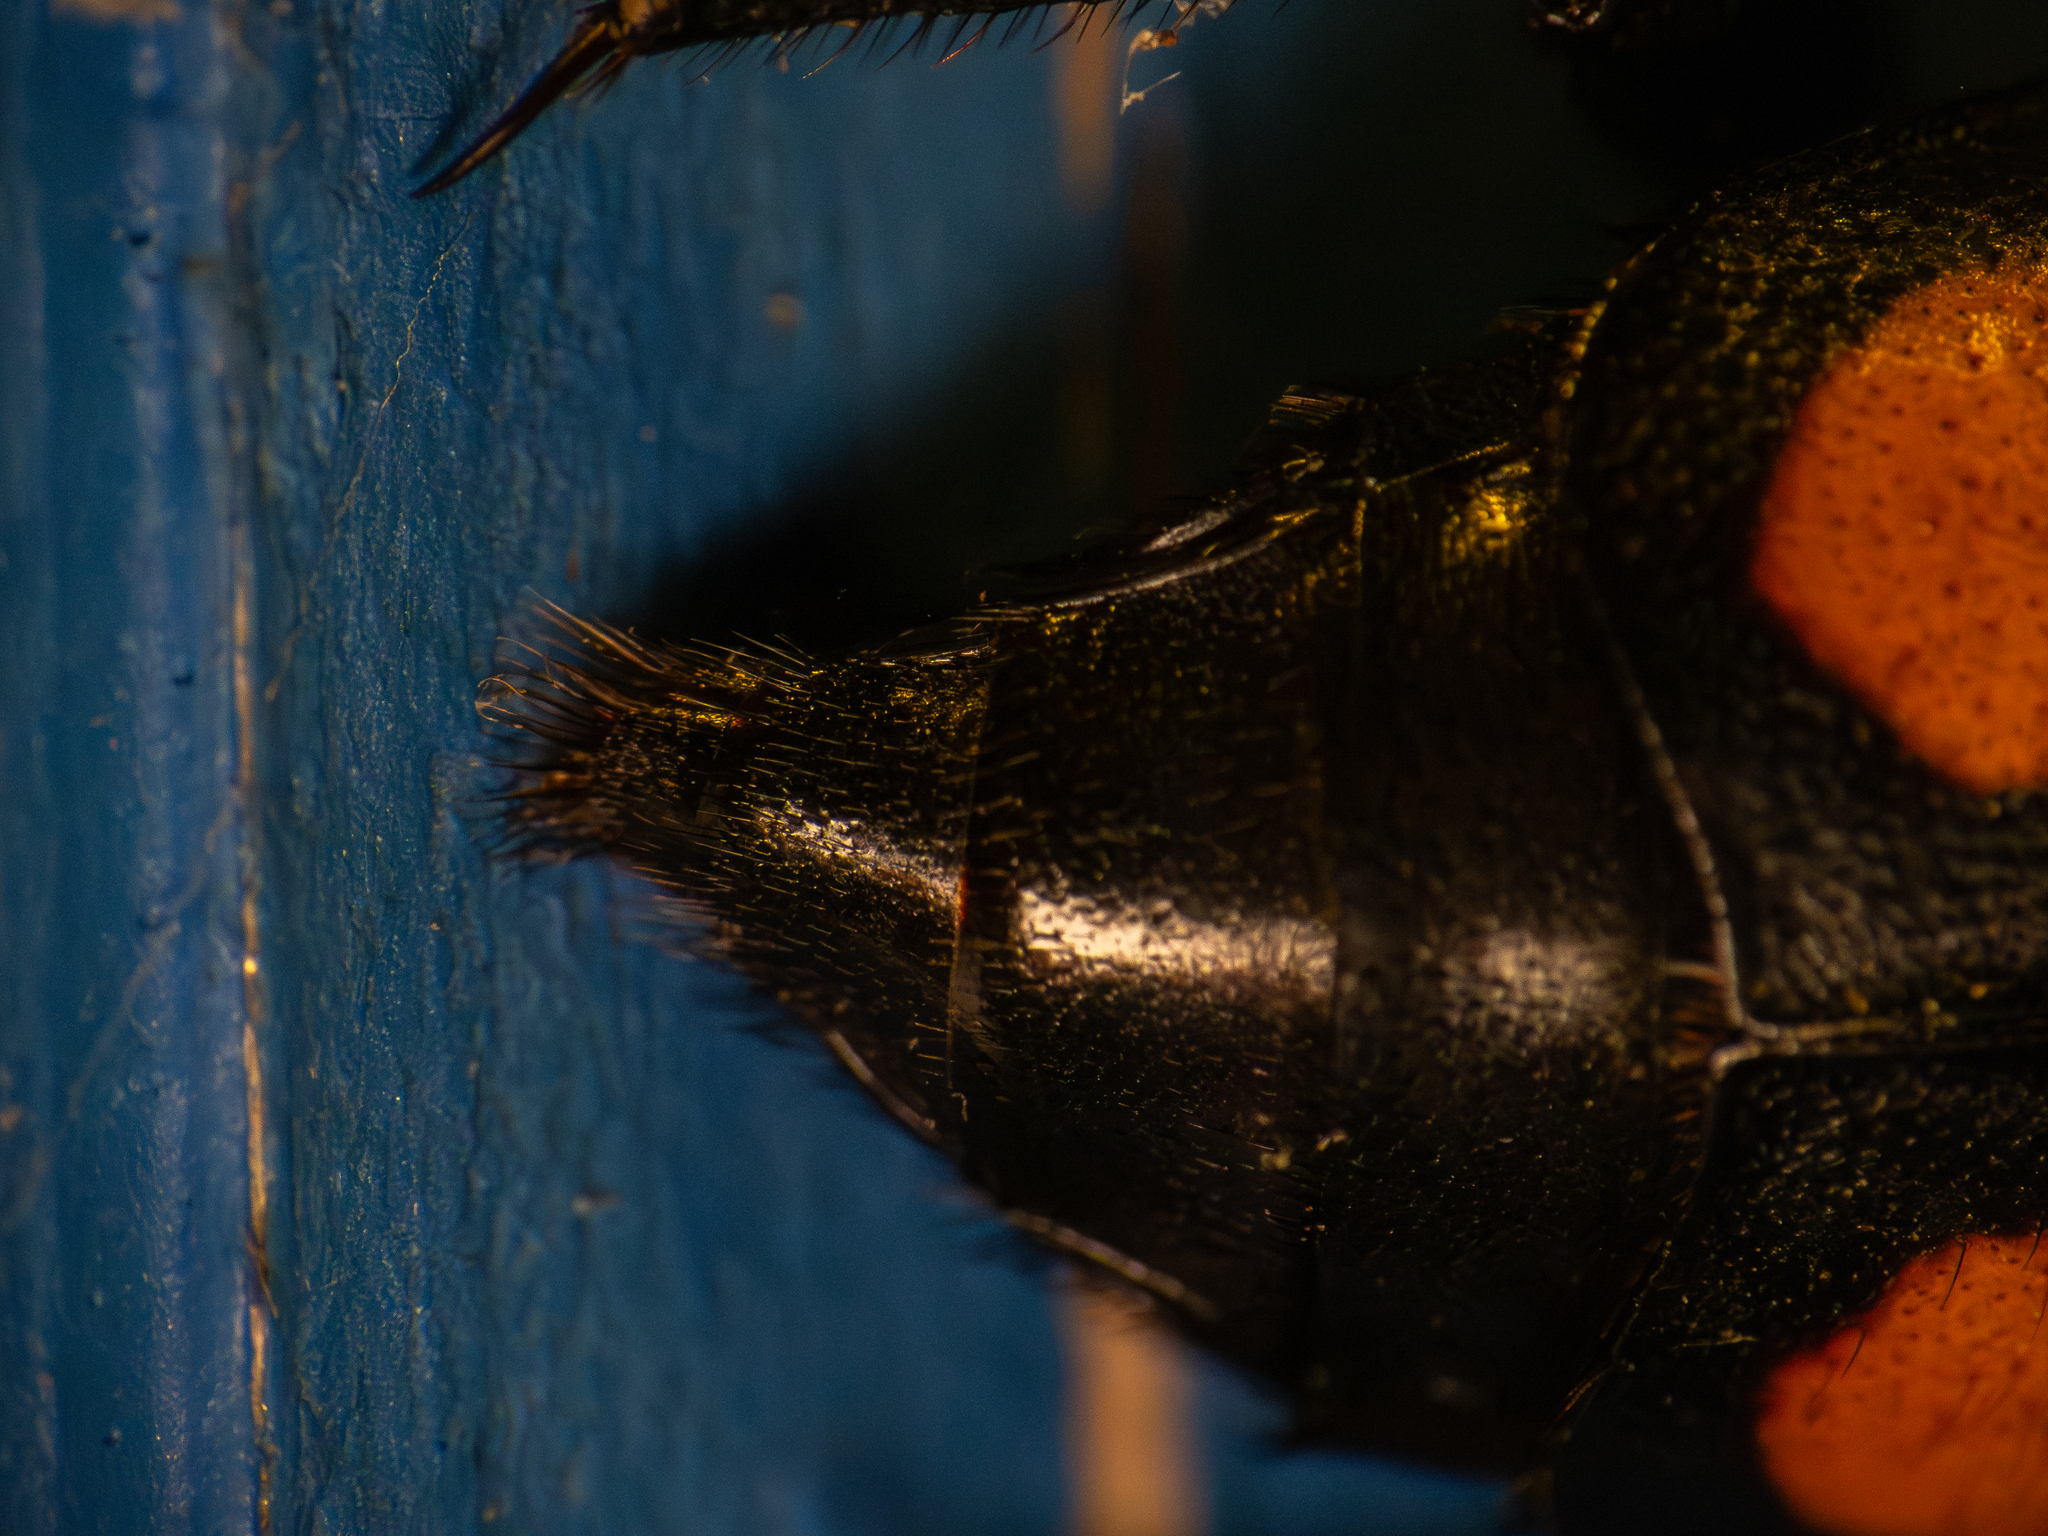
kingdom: Animalia
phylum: Arthropoda
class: Insecta
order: Coleoptera
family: Staphylinidae
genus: Nicrophorus
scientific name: Nicrophorus orbicollis
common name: Roundneck sexton beetle
